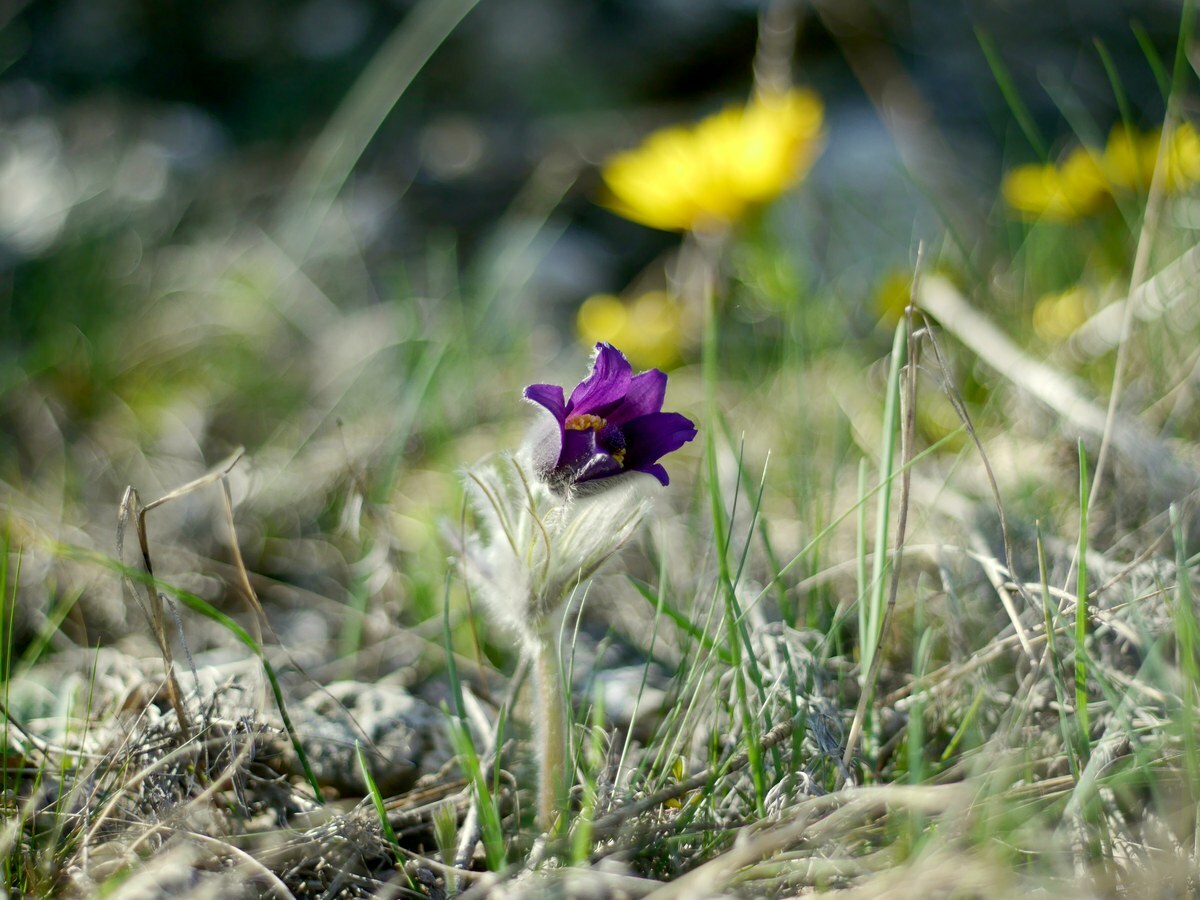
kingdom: Plantae
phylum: Tracheophyta
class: Magnoliopsida
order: Ranunculales
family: Ranunculaceae
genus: Pulsatilla
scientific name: Pulsatilla pratensis
